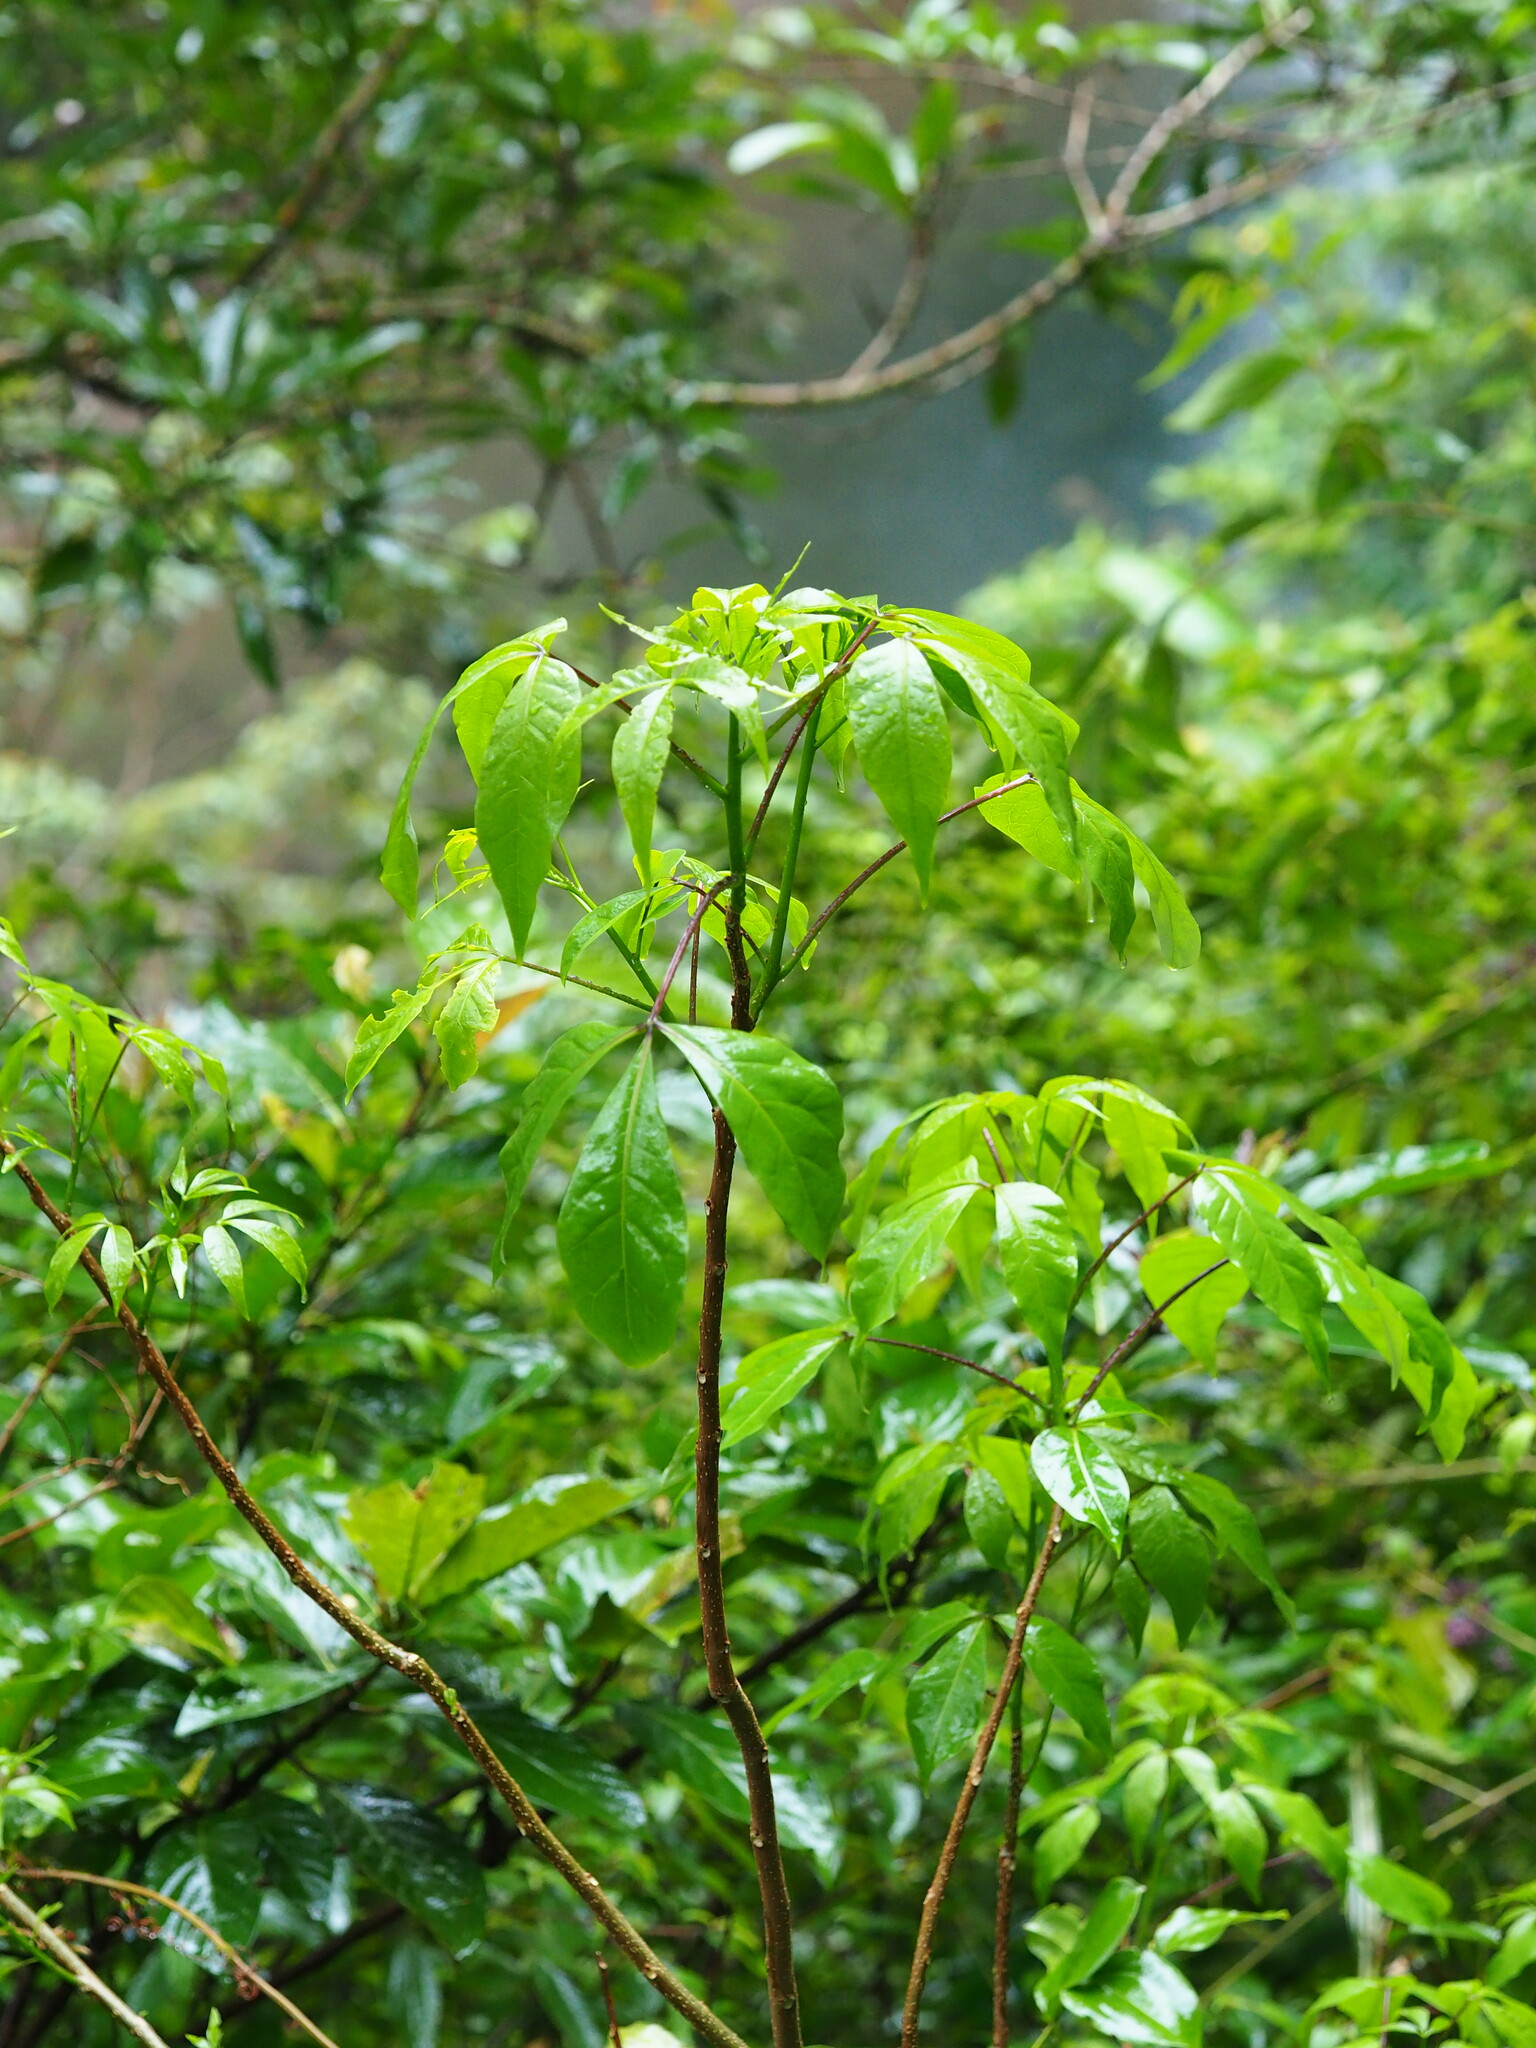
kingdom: Plantae
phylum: Tracheophyta
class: Magnoliopsida
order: Brassicales
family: Capparaceae
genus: Crateva
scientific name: Crateva formosensis
